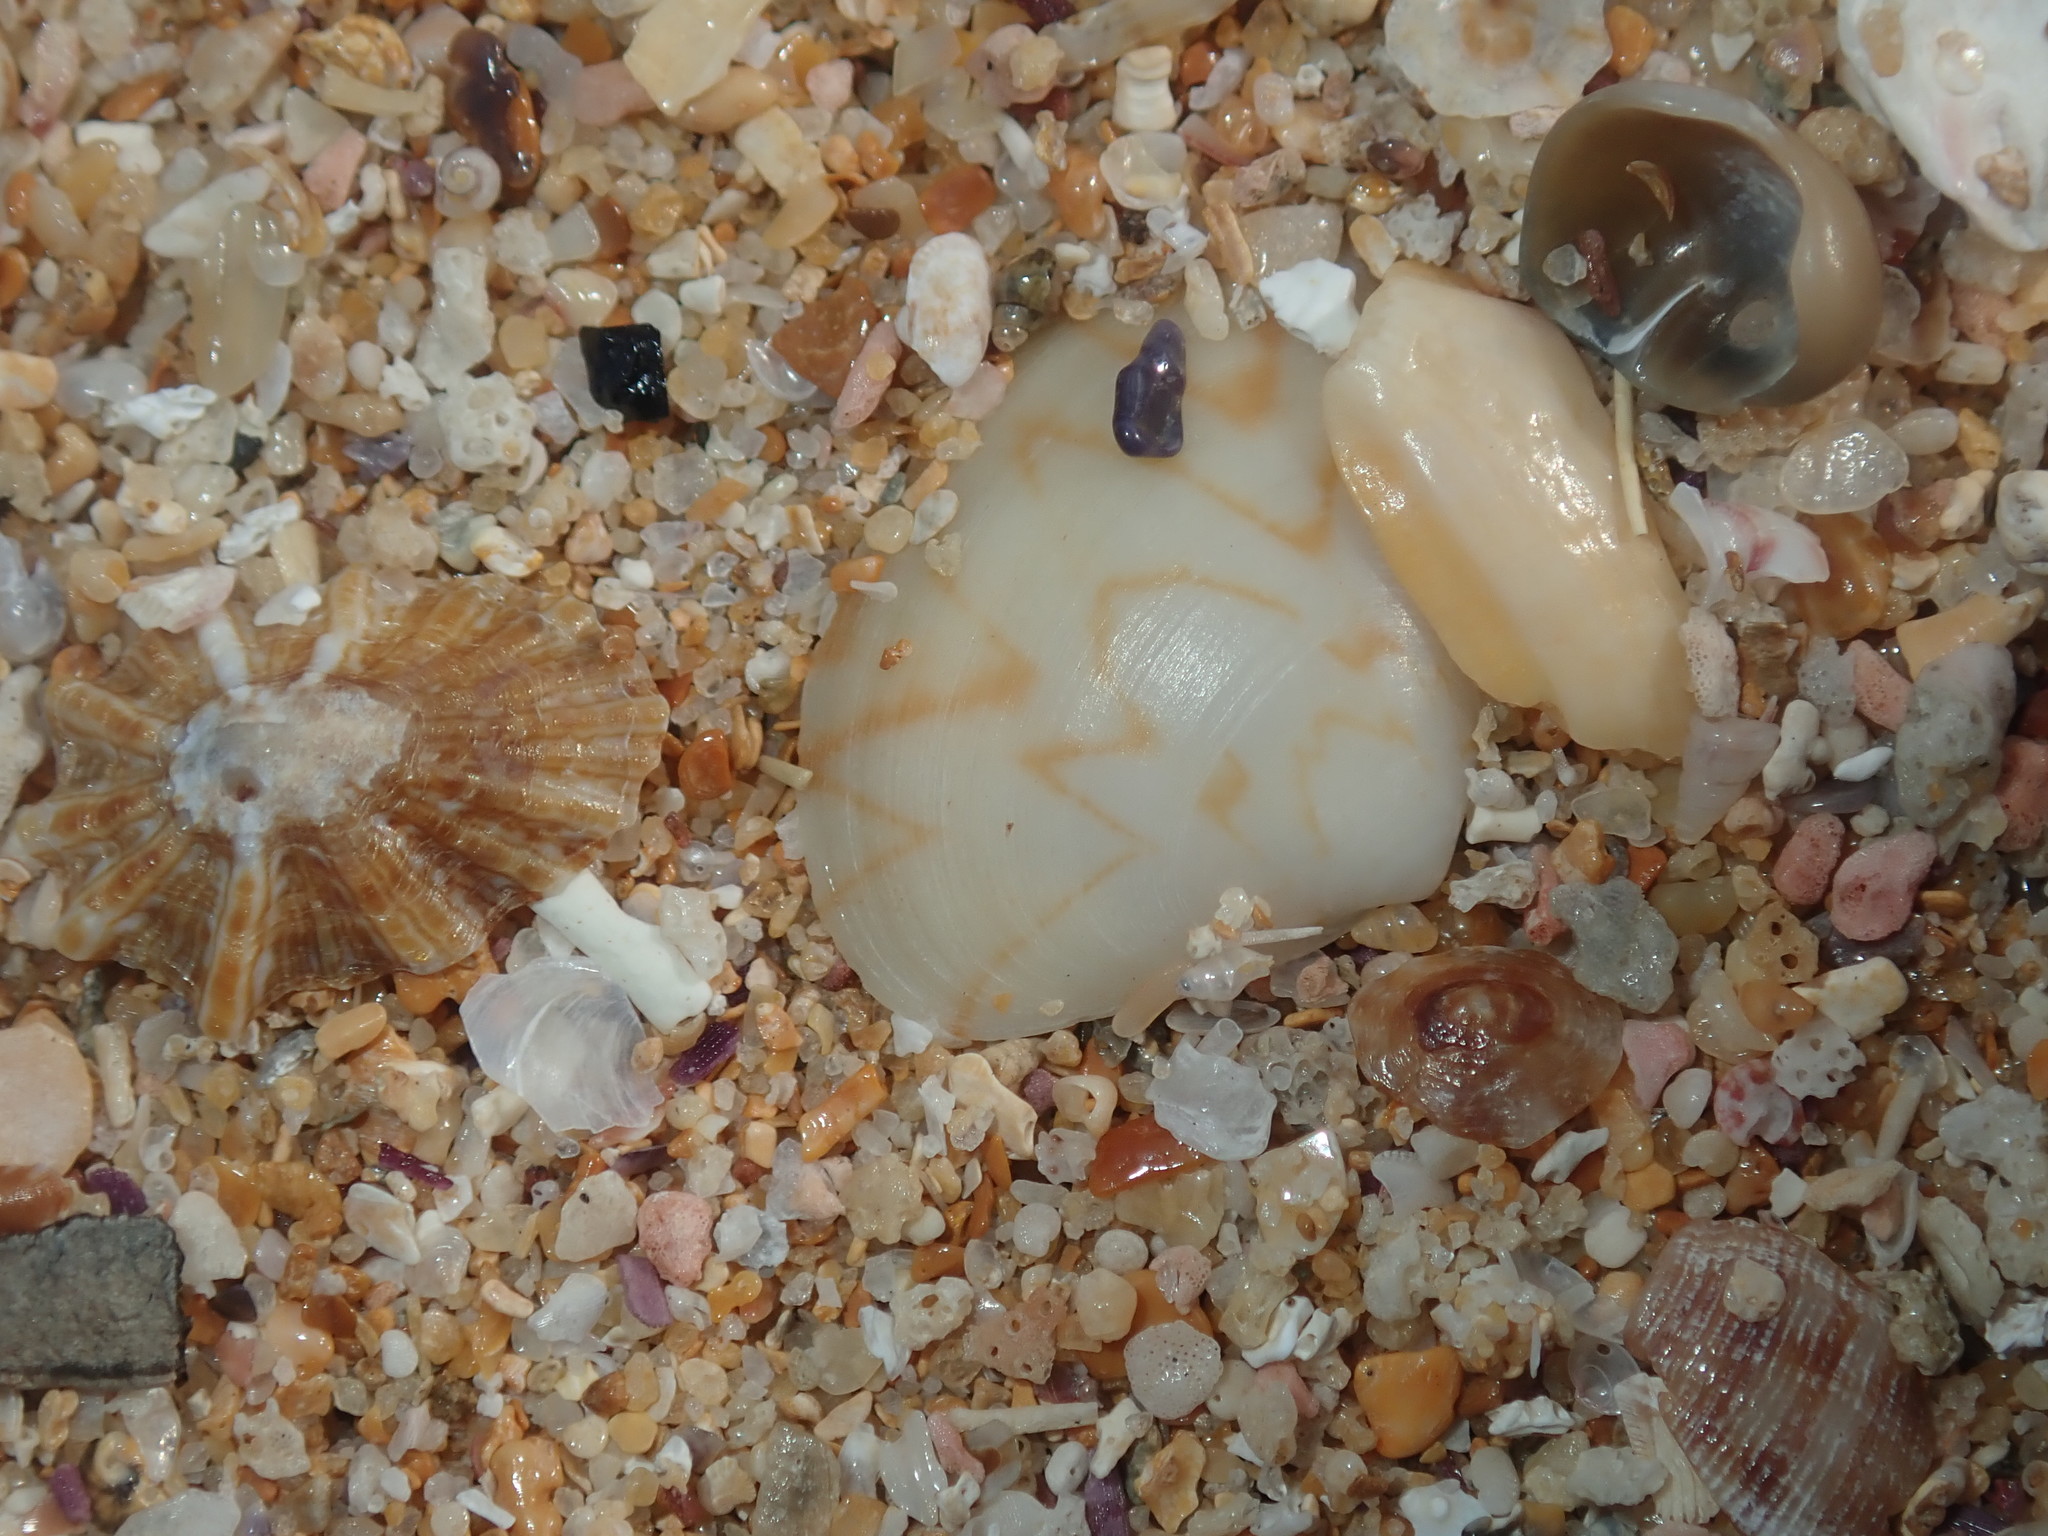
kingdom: Animalia
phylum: Mollusca
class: Bivalvia
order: Venerida
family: Veneridae
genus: Gomphina
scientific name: Gomphina undulosa
